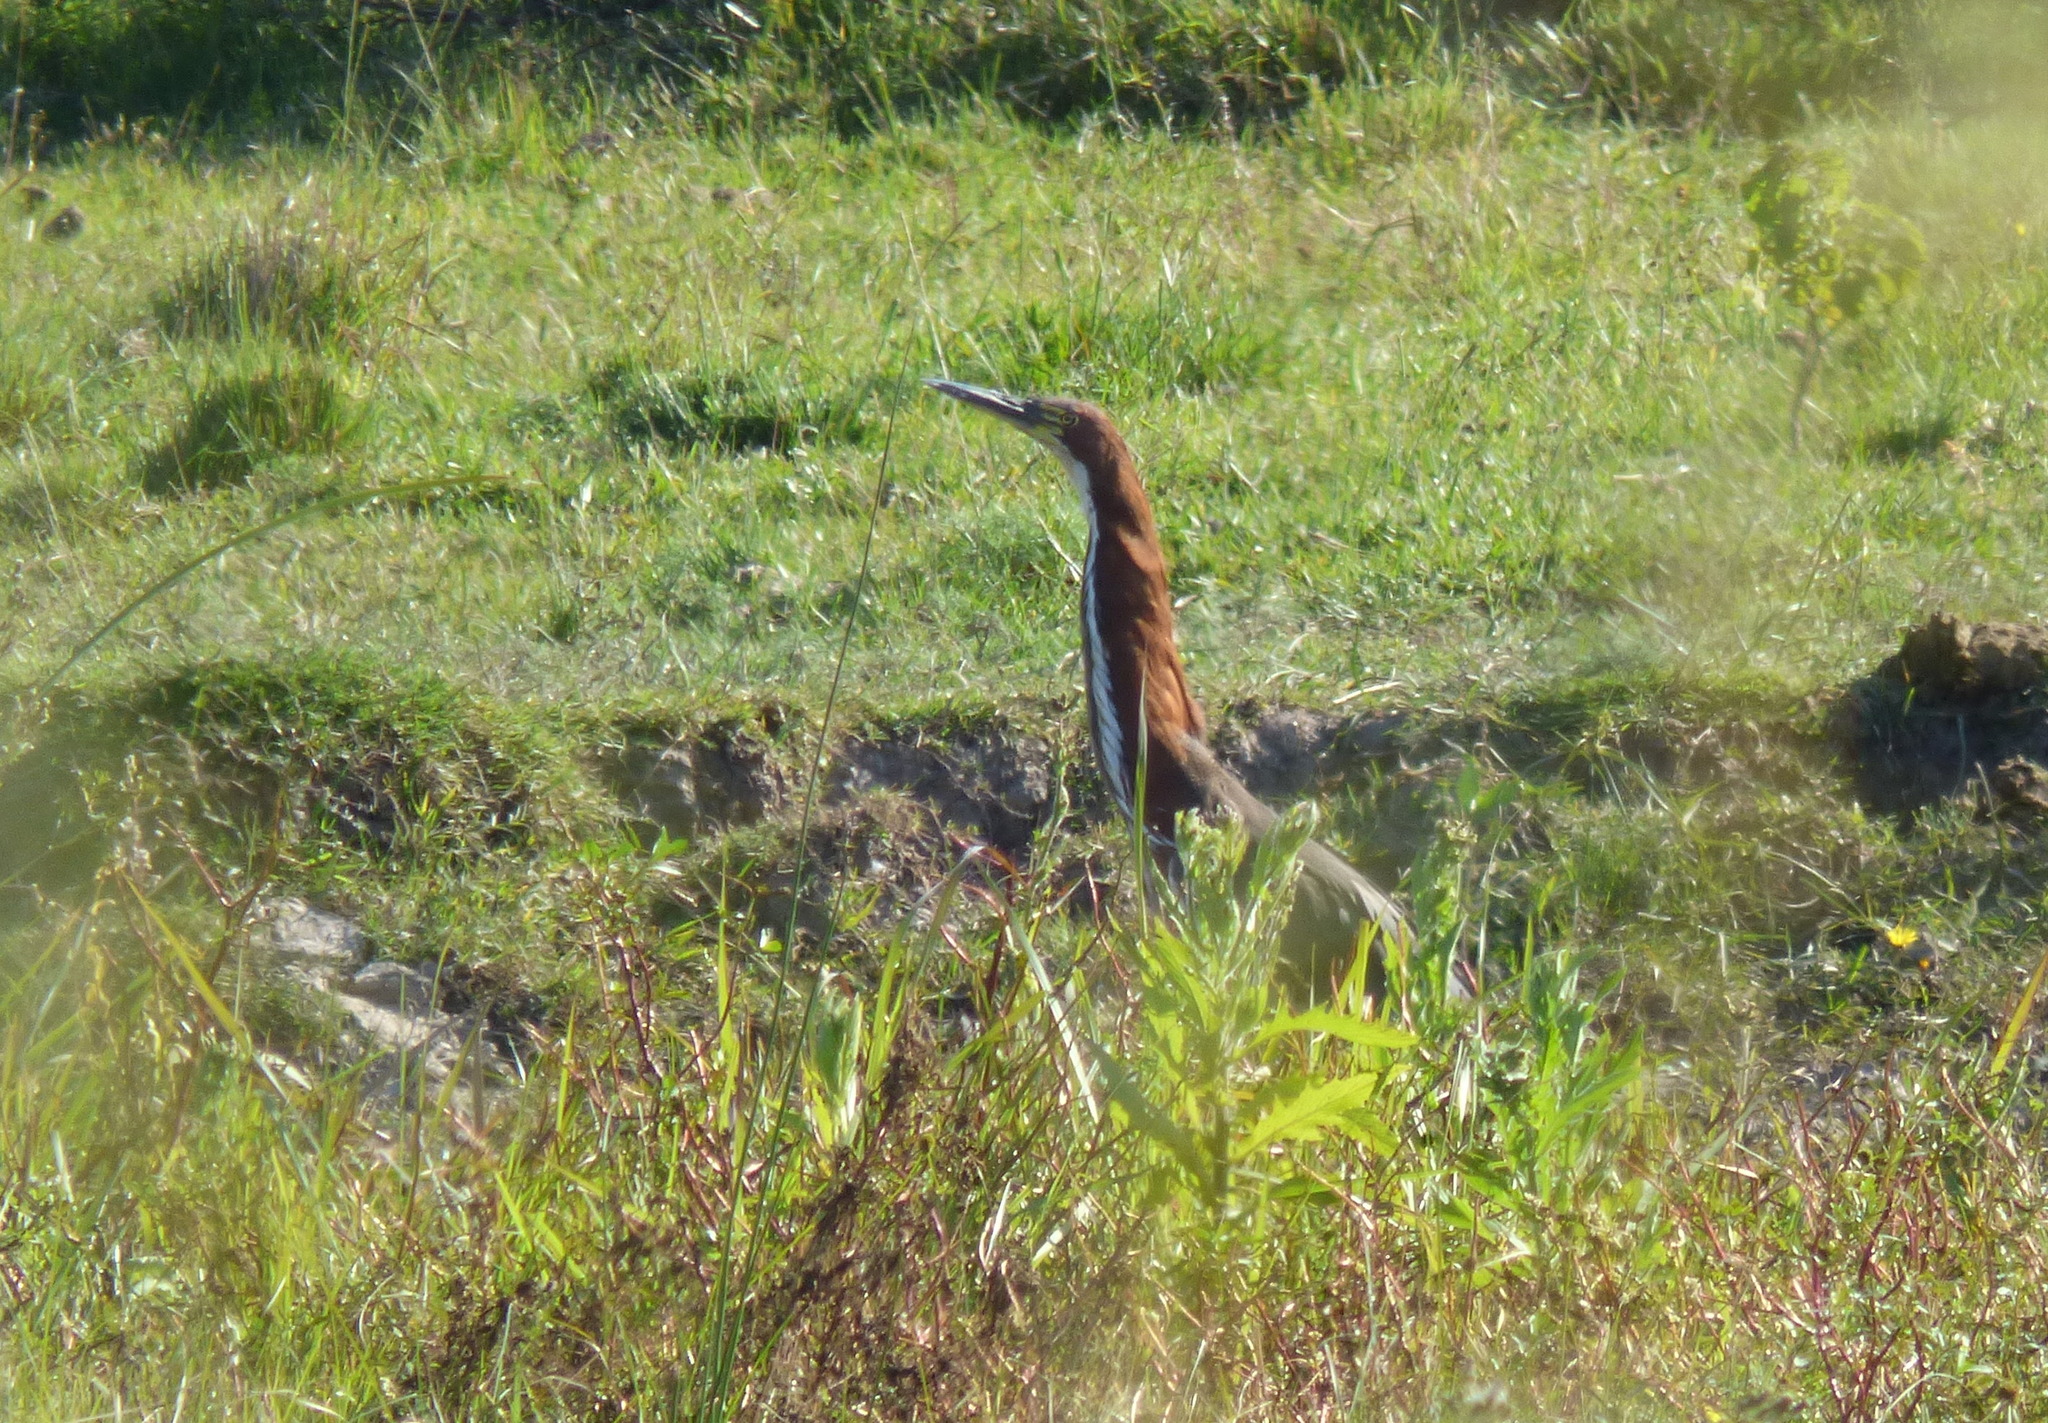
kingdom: Animalia
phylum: Chordata
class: Aves
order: Pelecaniformes
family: Ardeidae
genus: Tigrisoma
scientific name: Tigrisoma lineatum
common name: Rufescent tiger-heron
